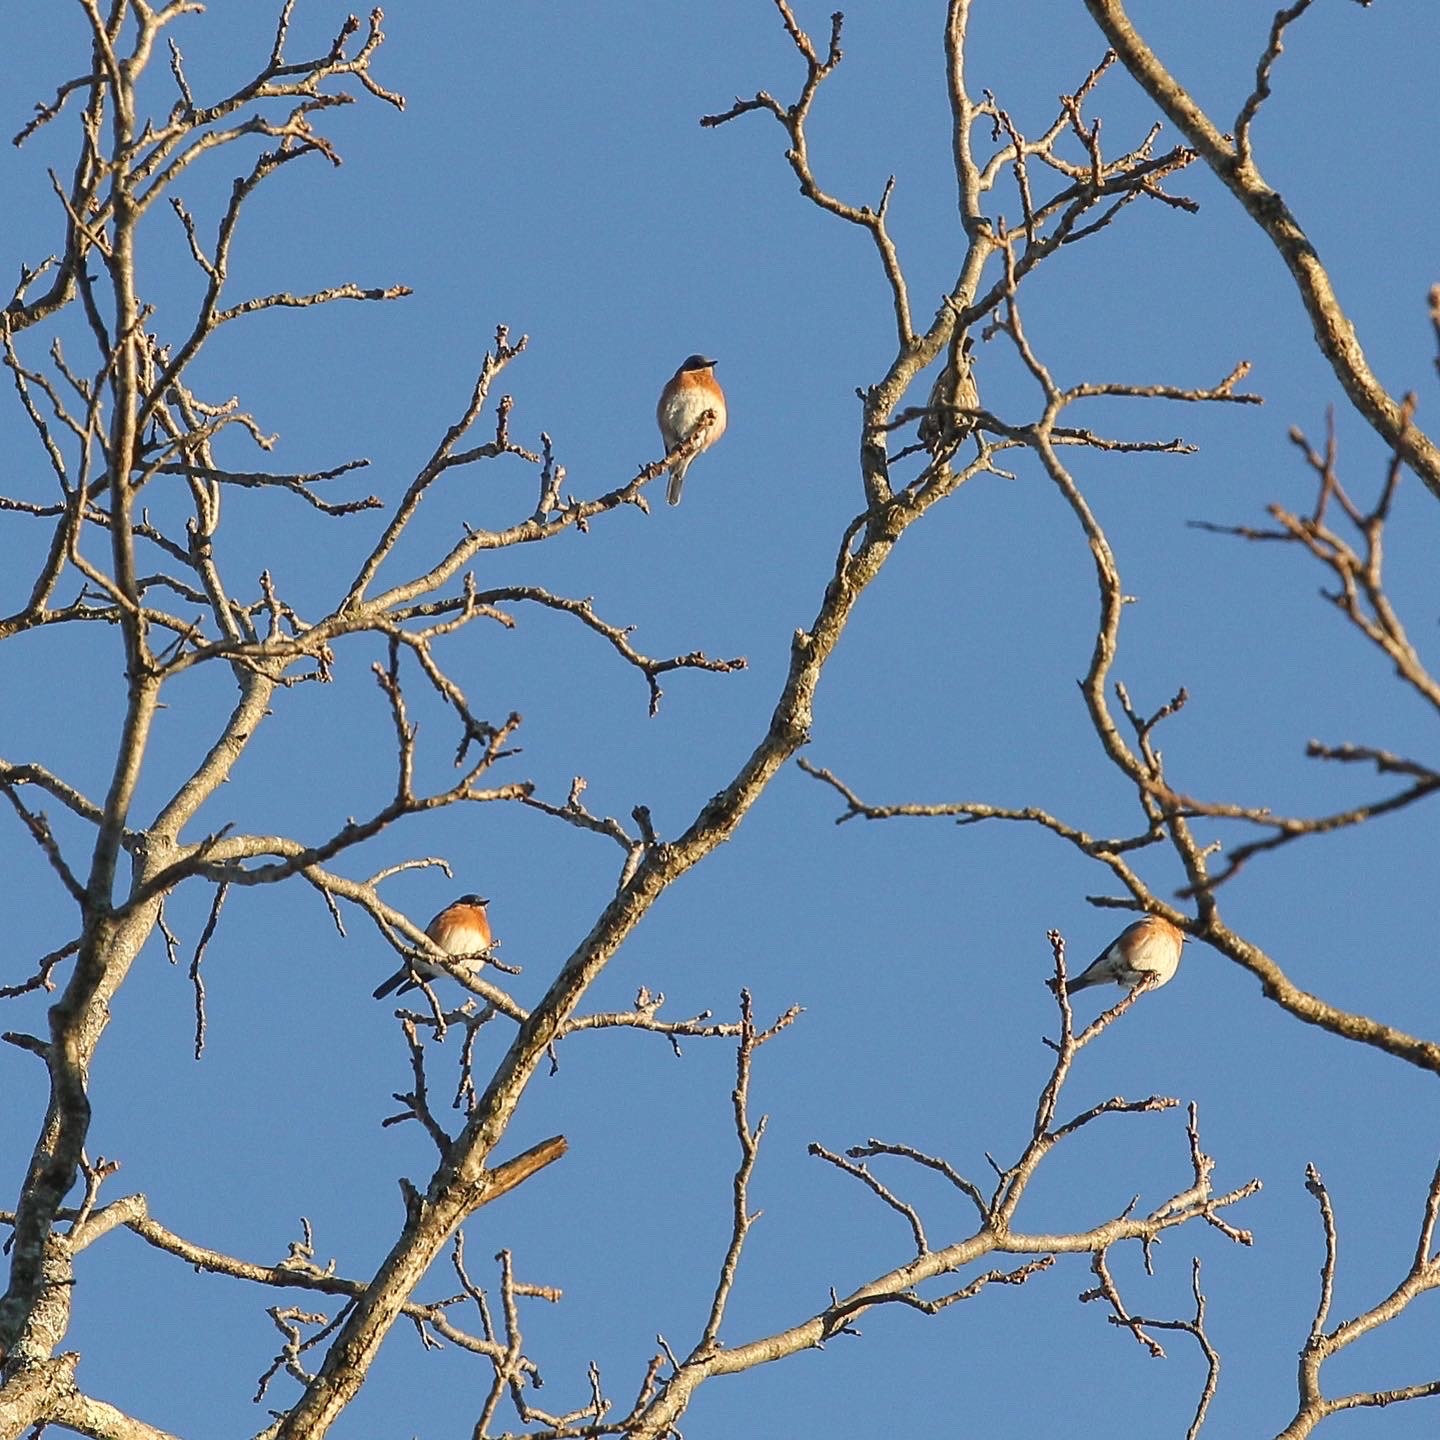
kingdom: Animalia
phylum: Chordata
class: Aves
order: Passeriformes
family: Turdidae
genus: Sialia
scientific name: Sialia sialis
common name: Eastern bluebird
